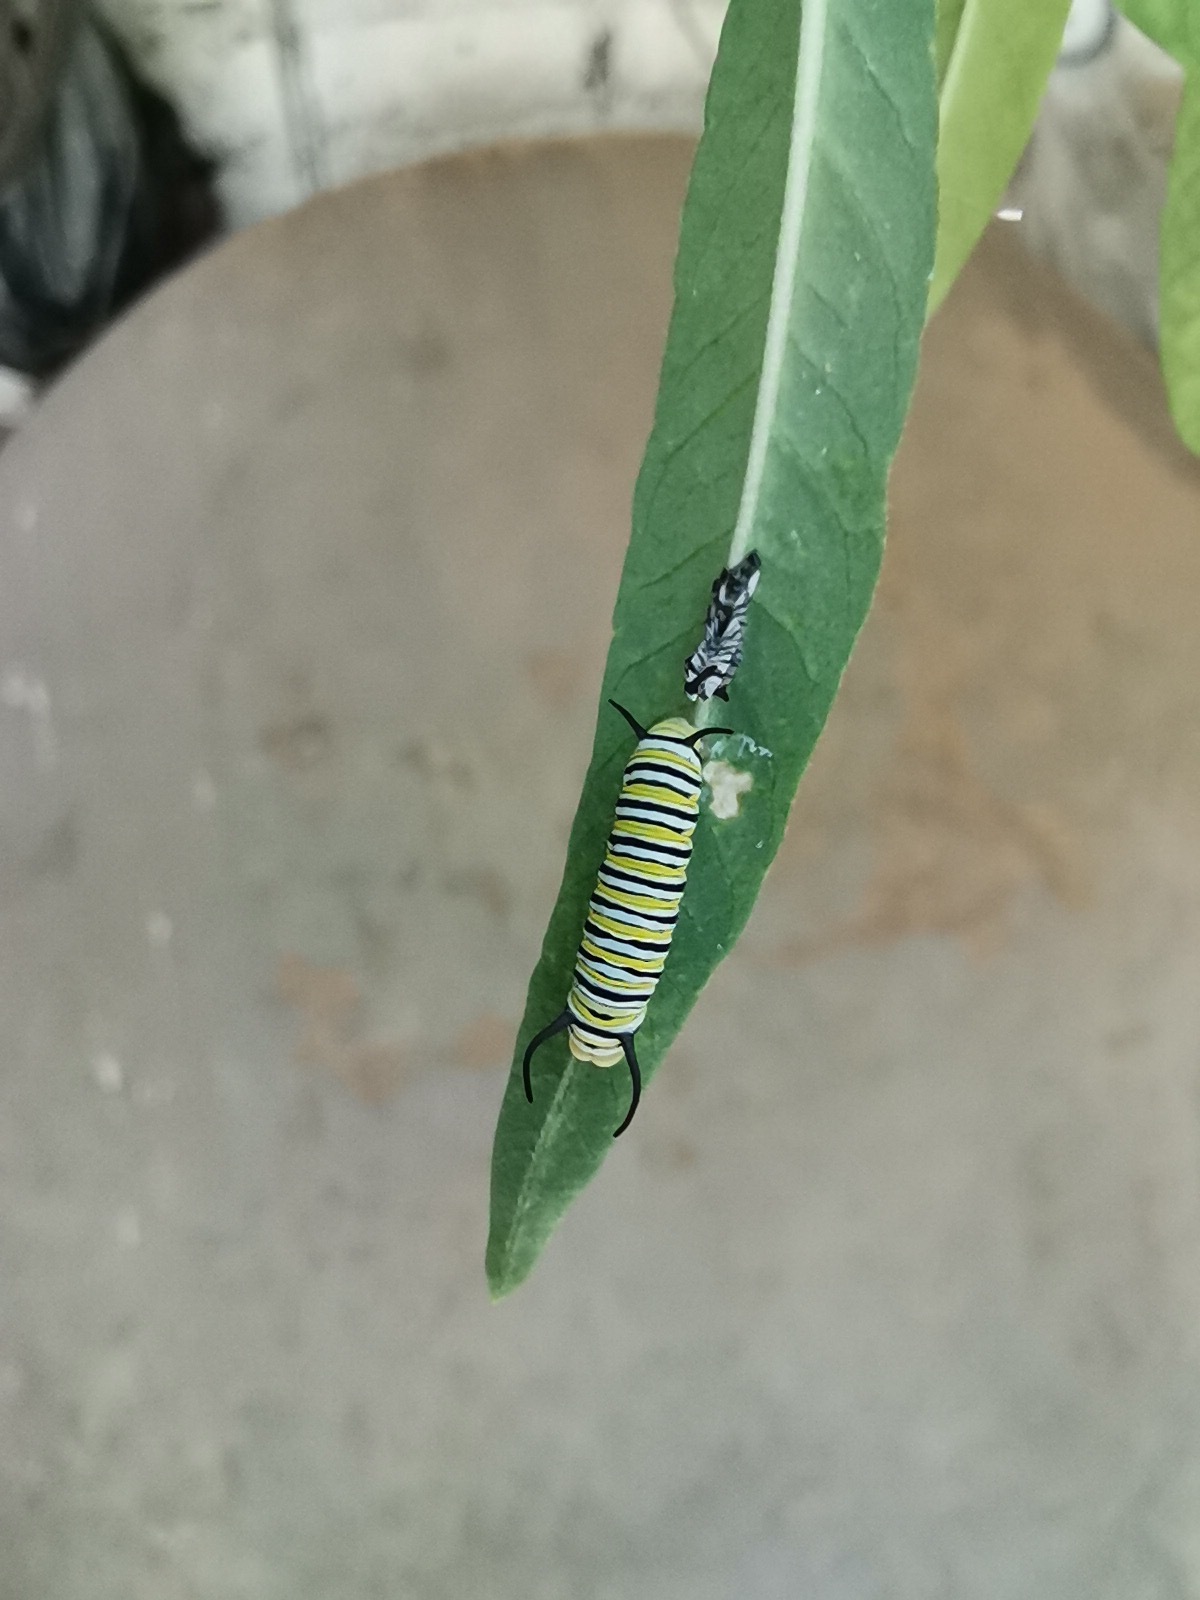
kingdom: Animalia
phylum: Arthropoda
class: Insecta
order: Lepidoptera
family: Nymphalidae
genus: Danaus
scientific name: Danaus plexippus
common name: Monarch
